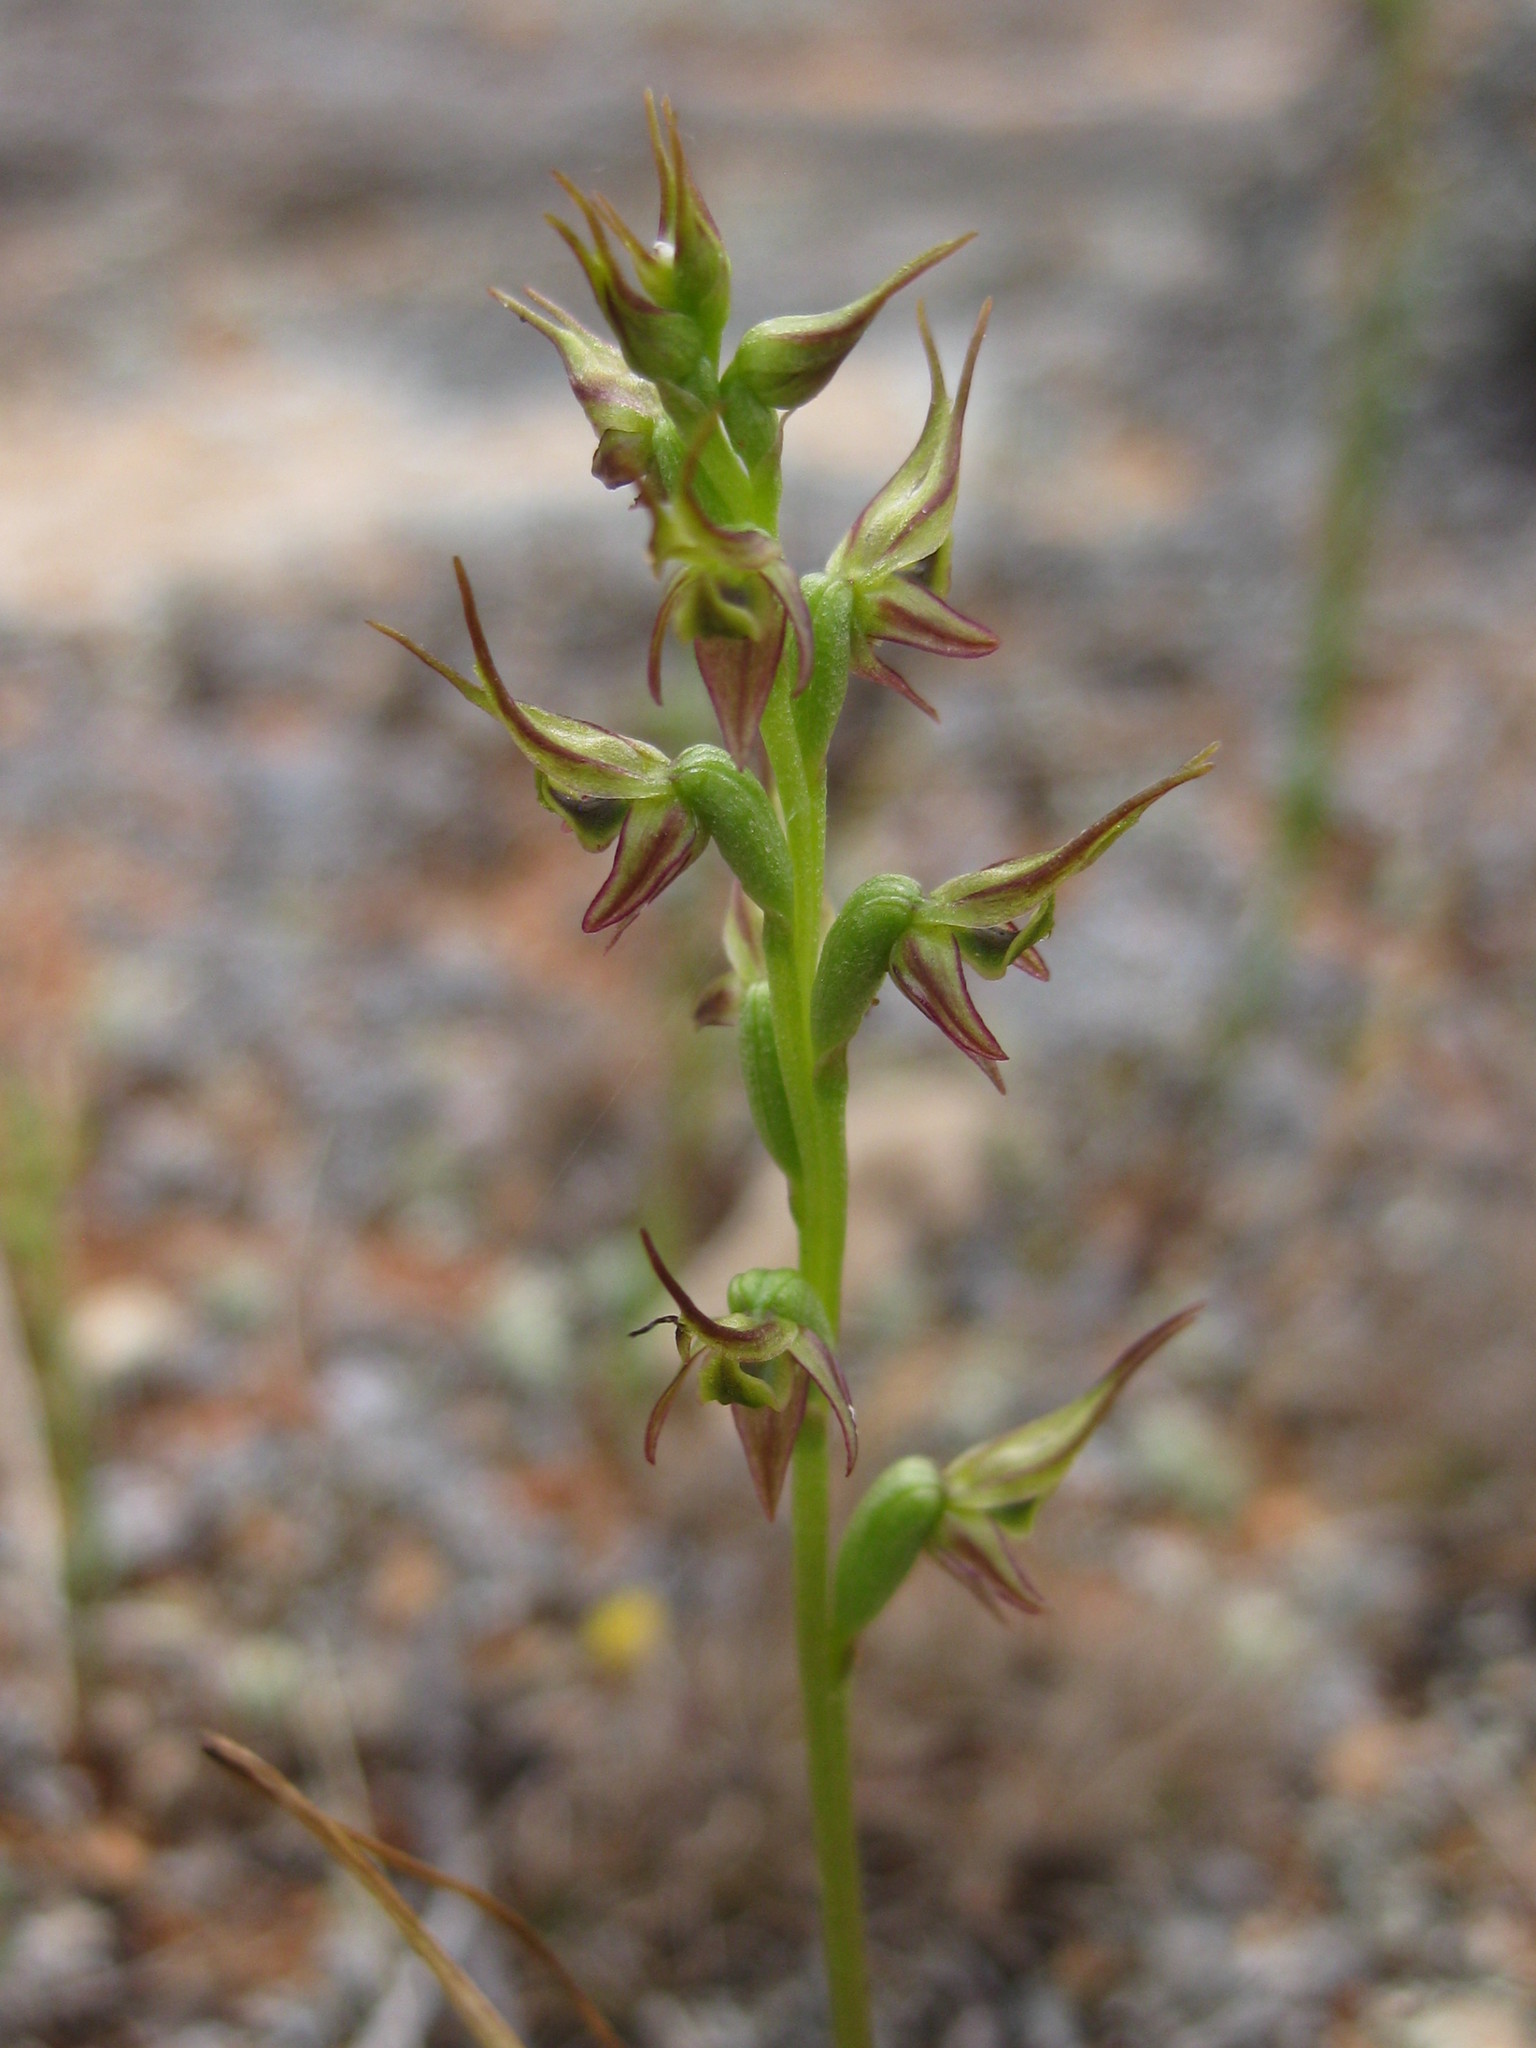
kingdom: Plantae
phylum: Tracheophyta
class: Liliopsida
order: Asparagales
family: Orchidaceae
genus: Prasophyllum
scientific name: Prasophyllum gracile
